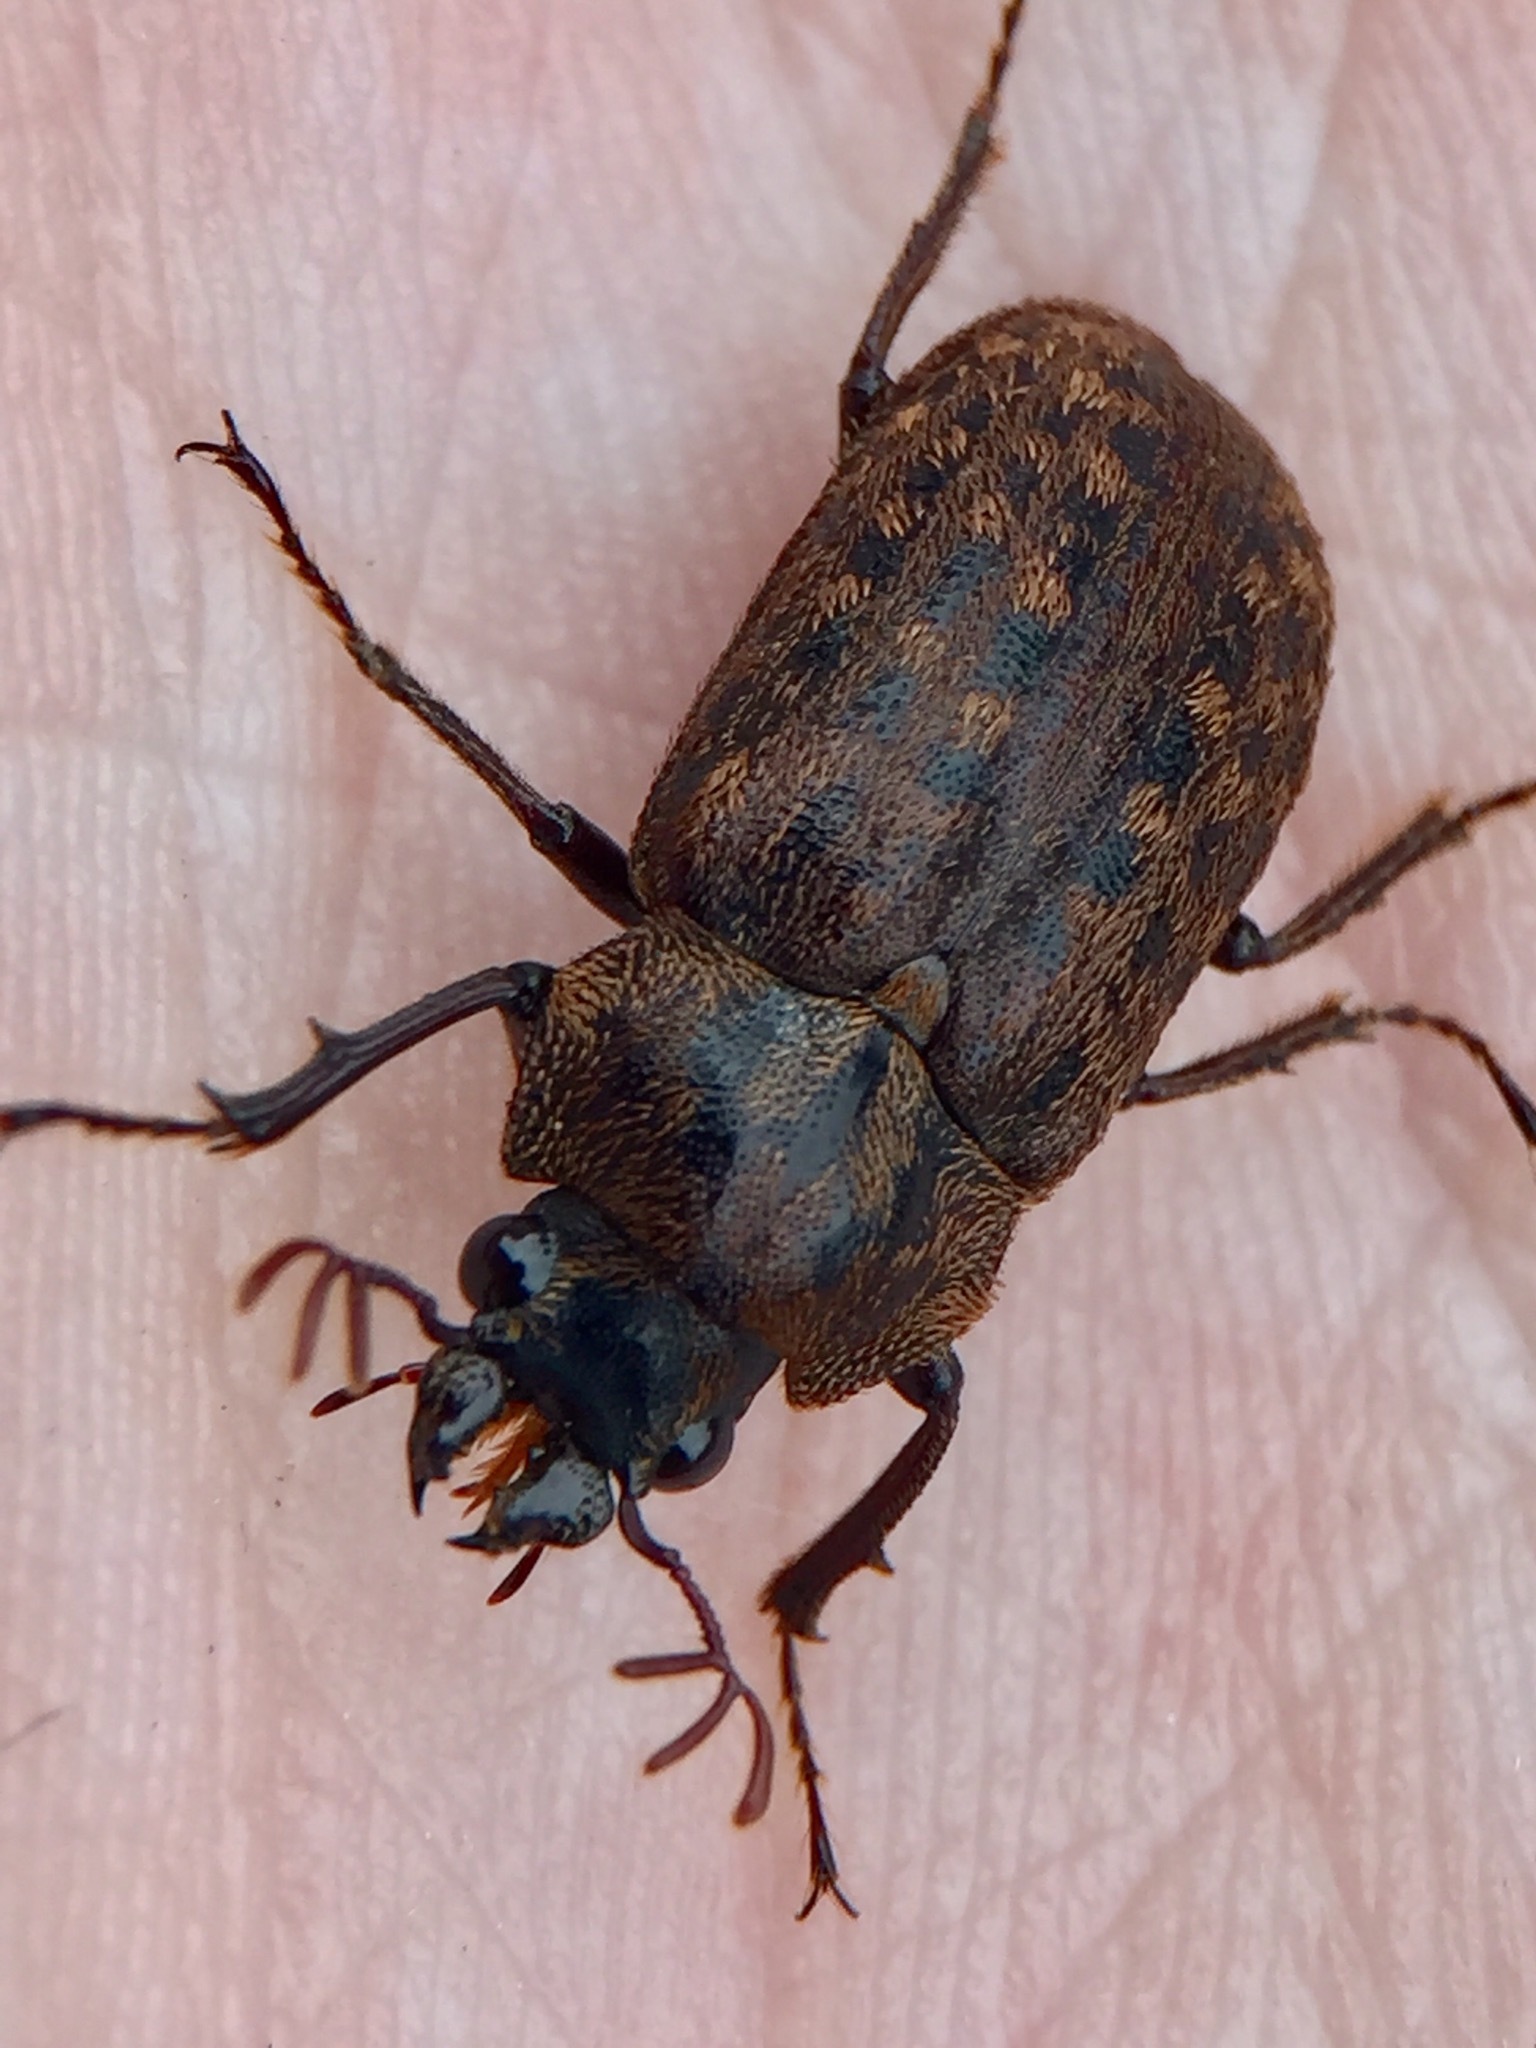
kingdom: Animalia
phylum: Arthropoda
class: Insecta
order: Coleoptera
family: Lucanidae
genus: Mitophyllus
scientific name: Mitophyllus parrianus
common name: Parry's stag beetle
